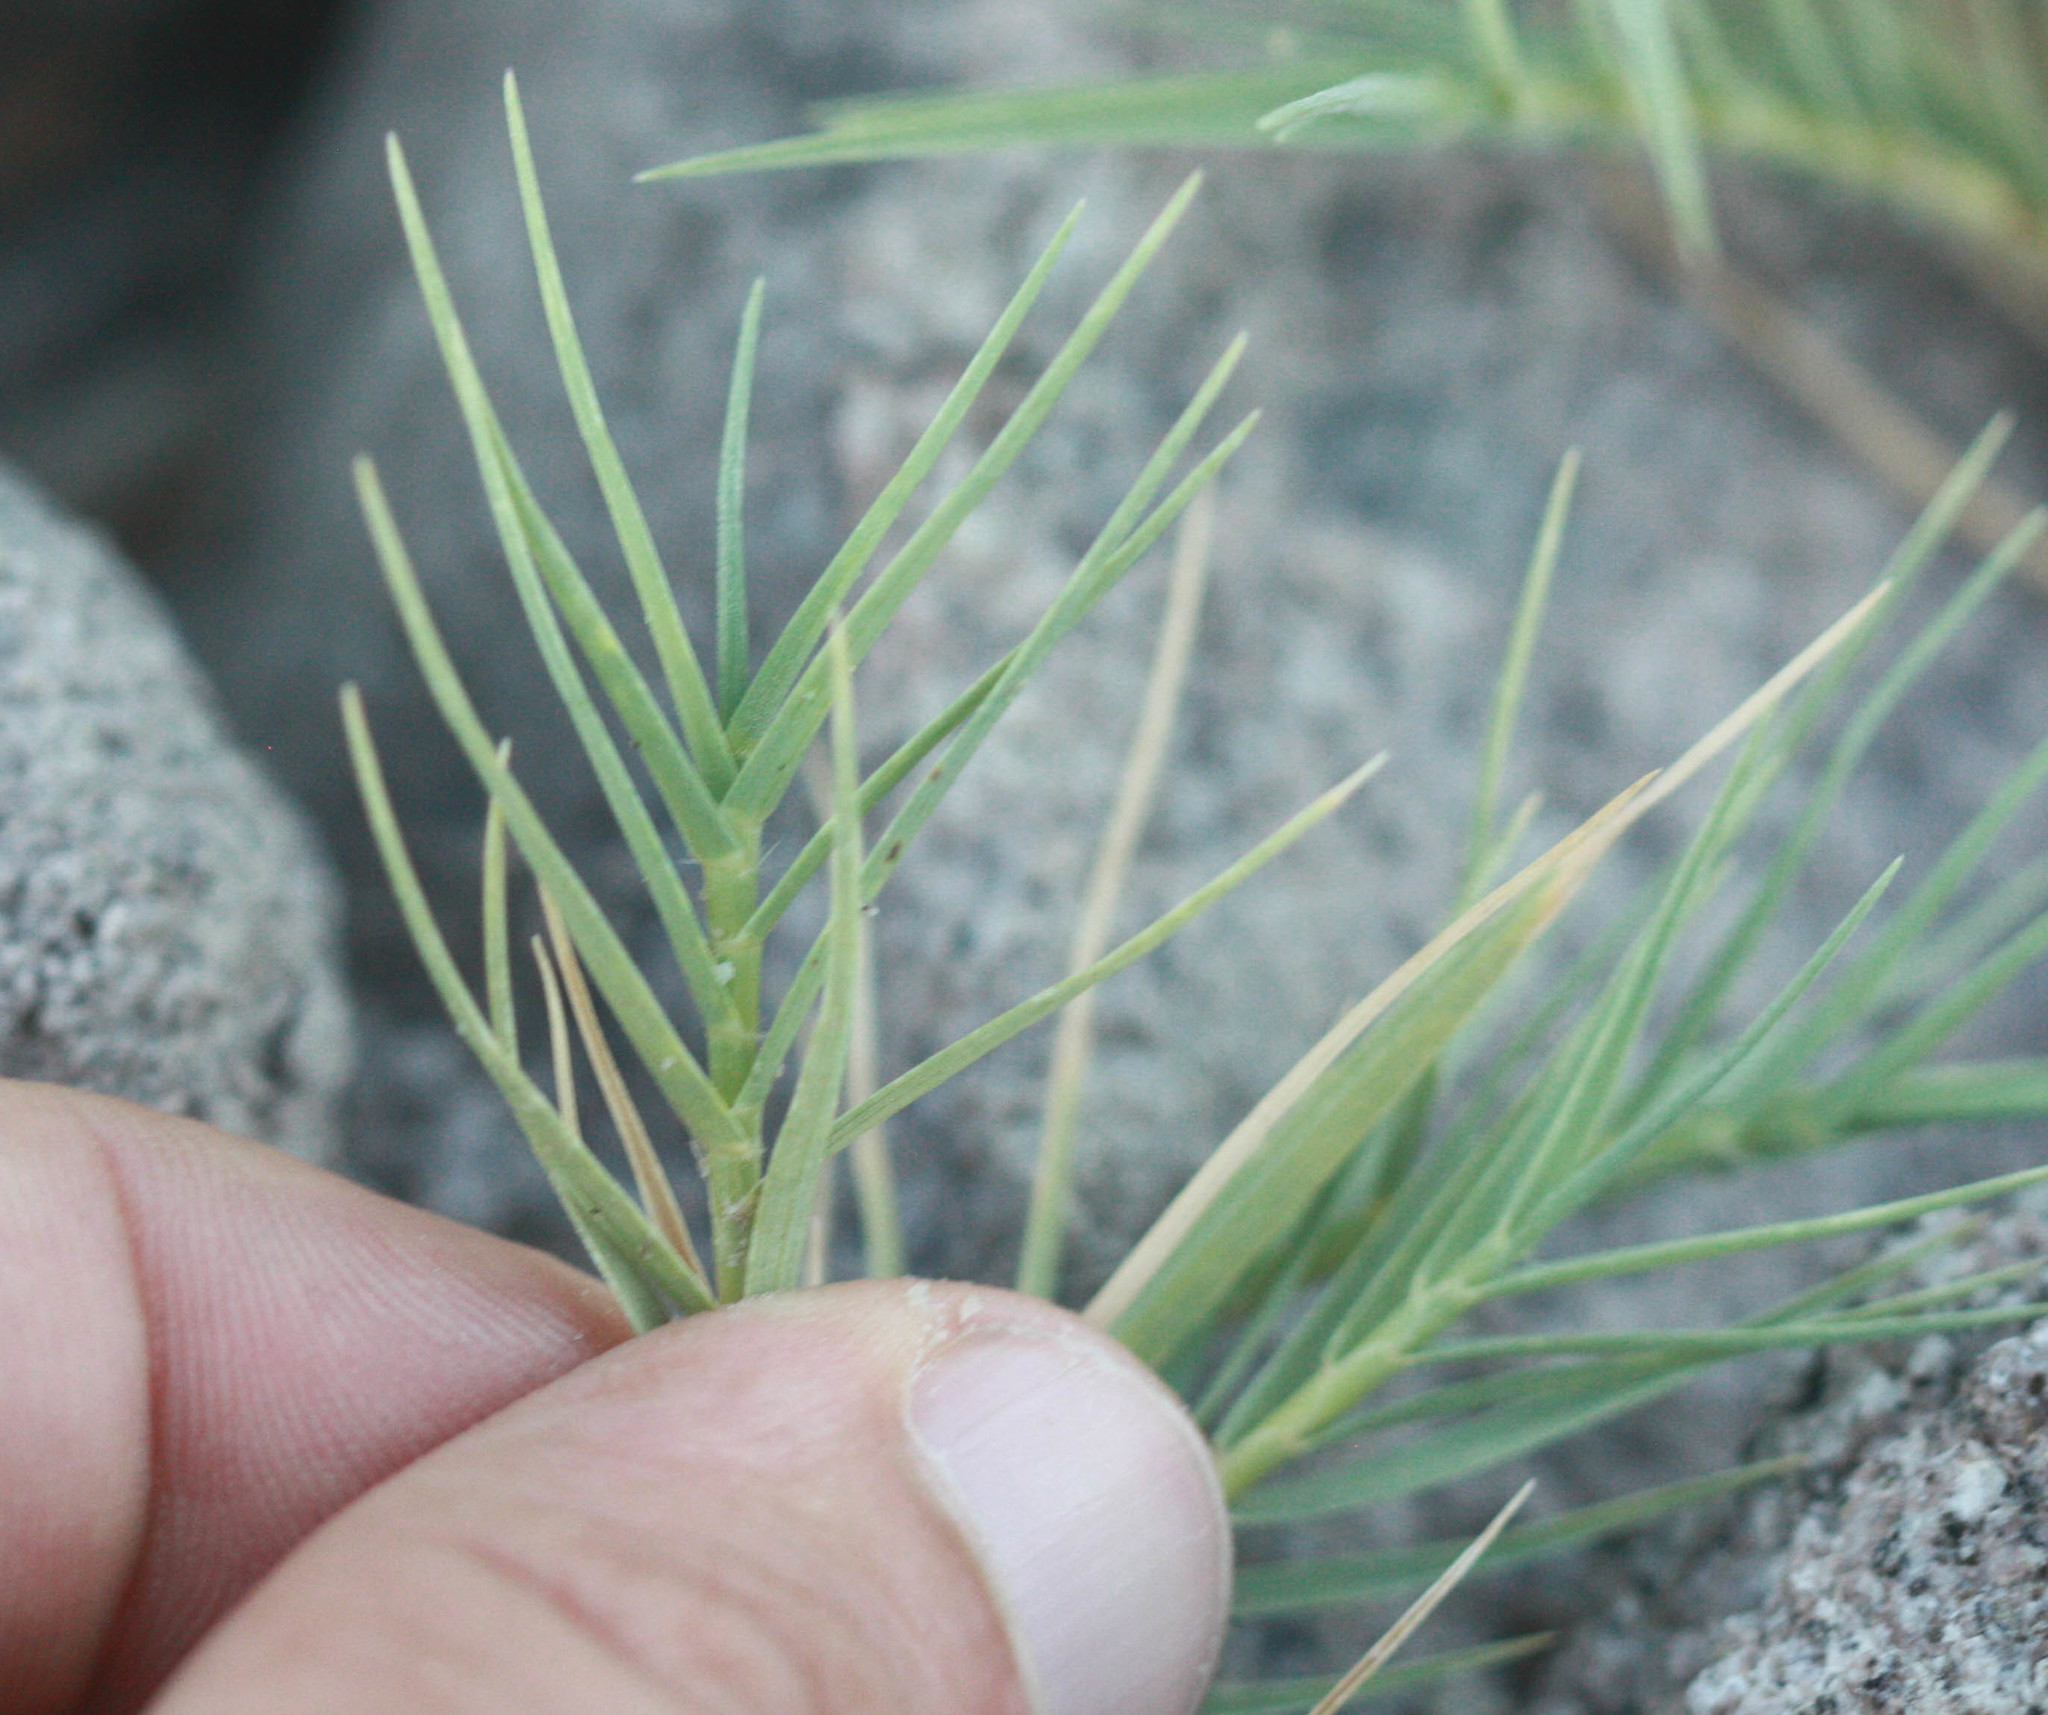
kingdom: Plantae
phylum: Tracheophyta
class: Liliopsida
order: Poales
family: Poaceae
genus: Distichlis
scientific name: Distichlis spicata
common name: Saltgrass
